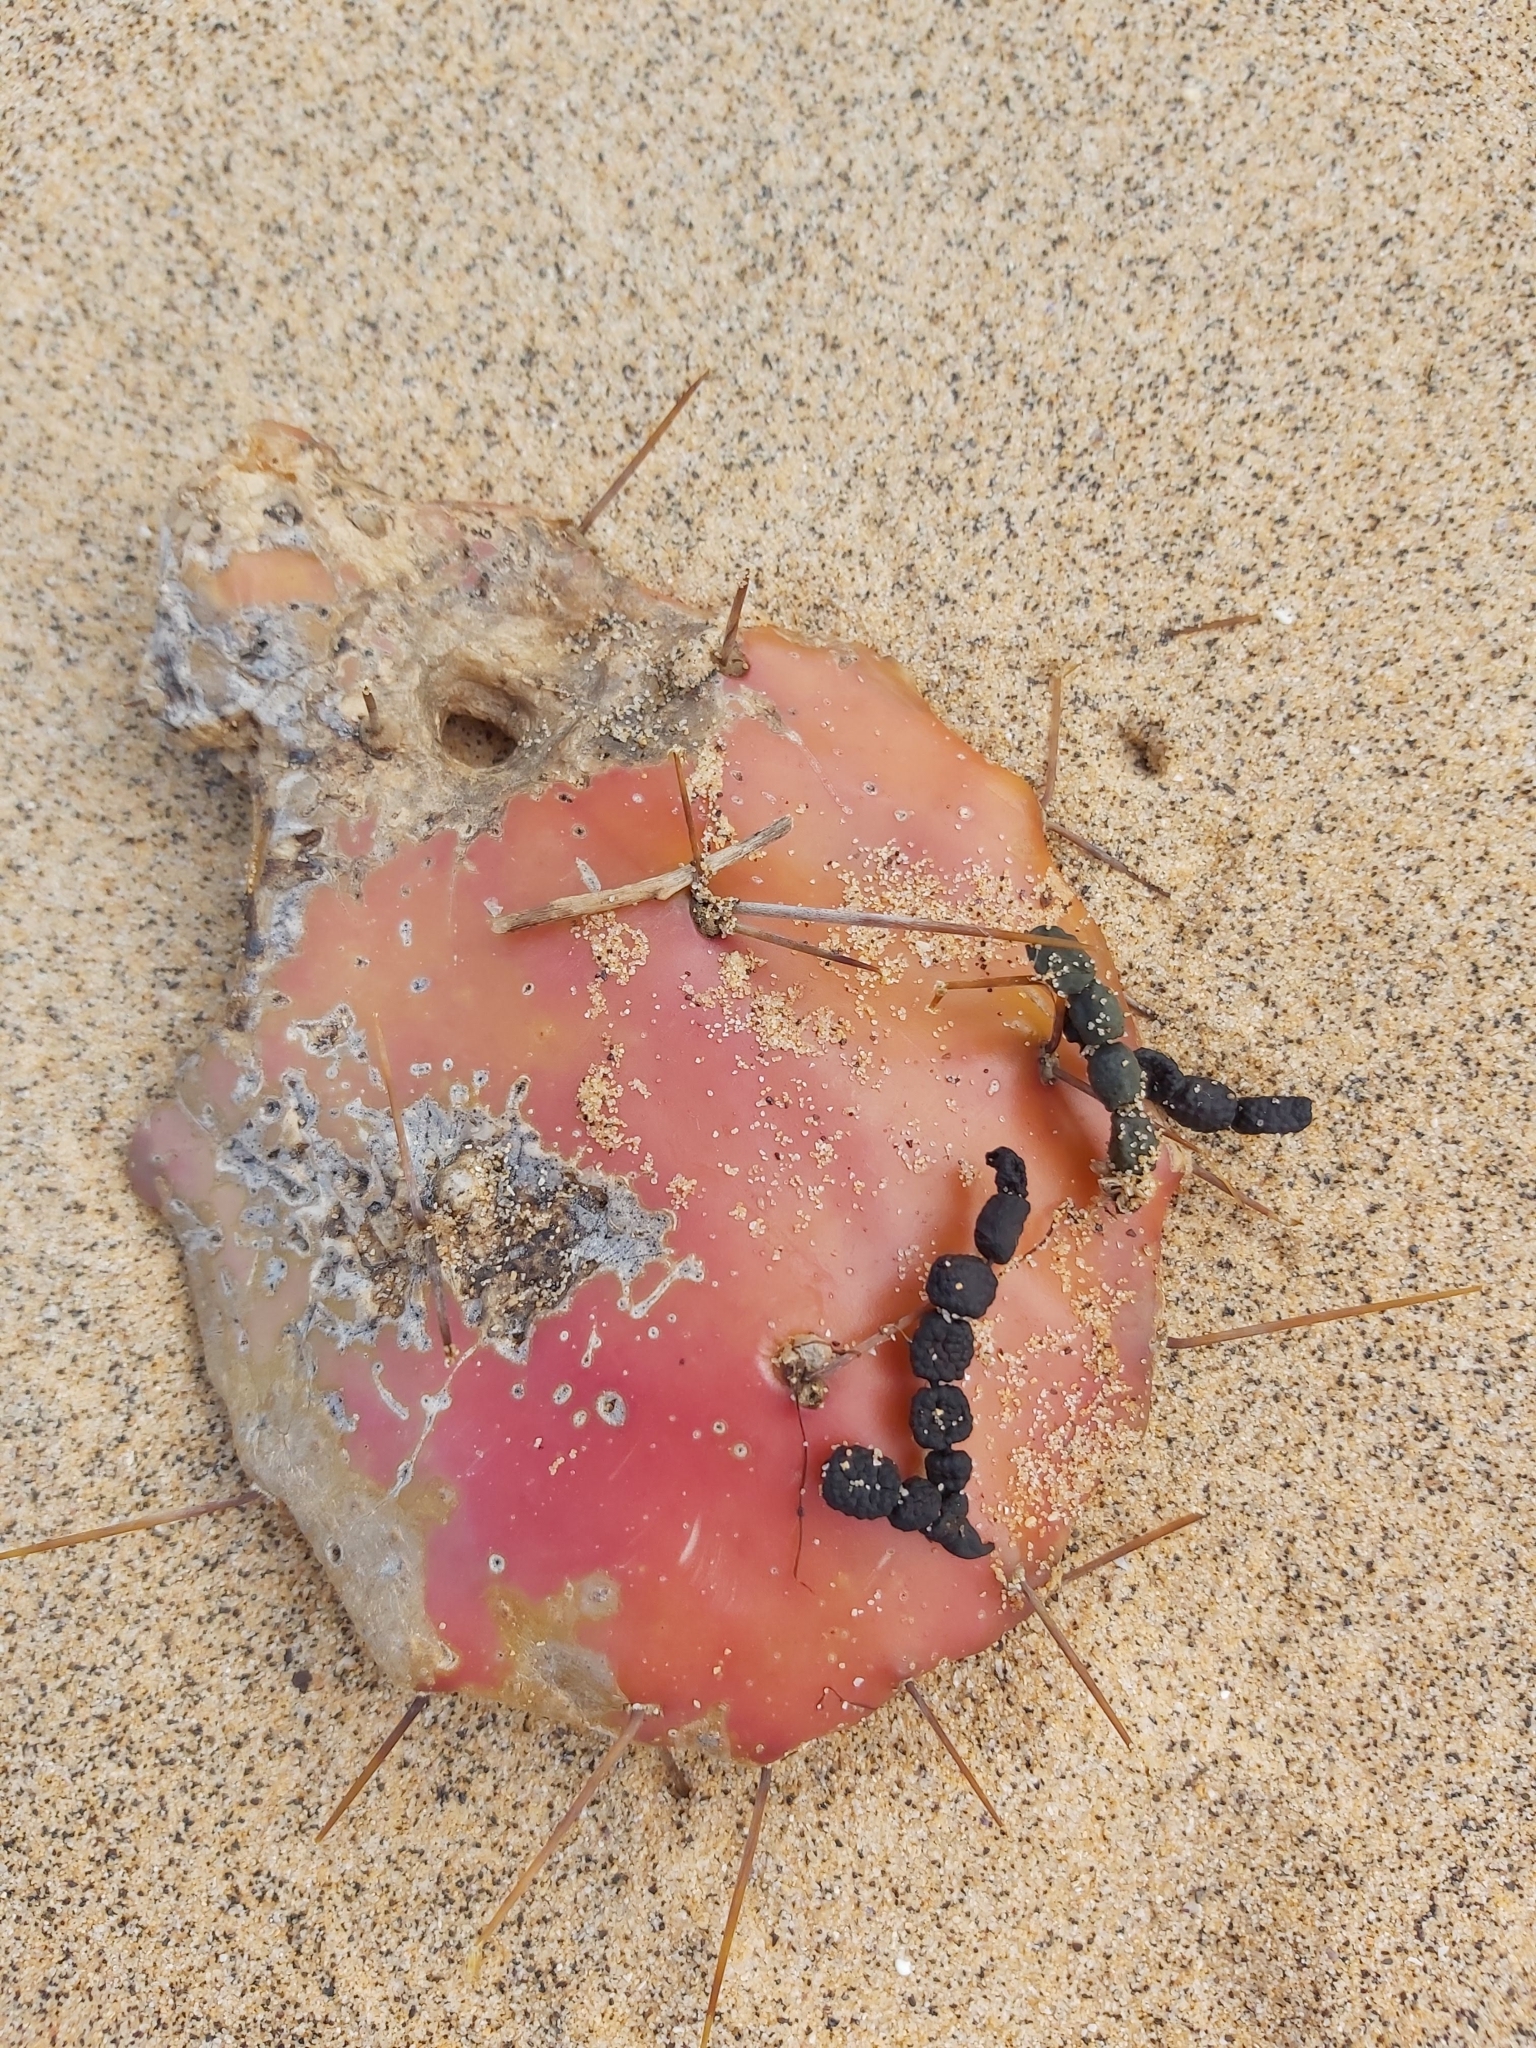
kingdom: Plantae
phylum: Tracheophyta
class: Magnoliopsida
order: Caryophyllales
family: Cactaceae
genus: Opuntia
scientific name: Opuntia monacantha
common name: Common pricklypear
